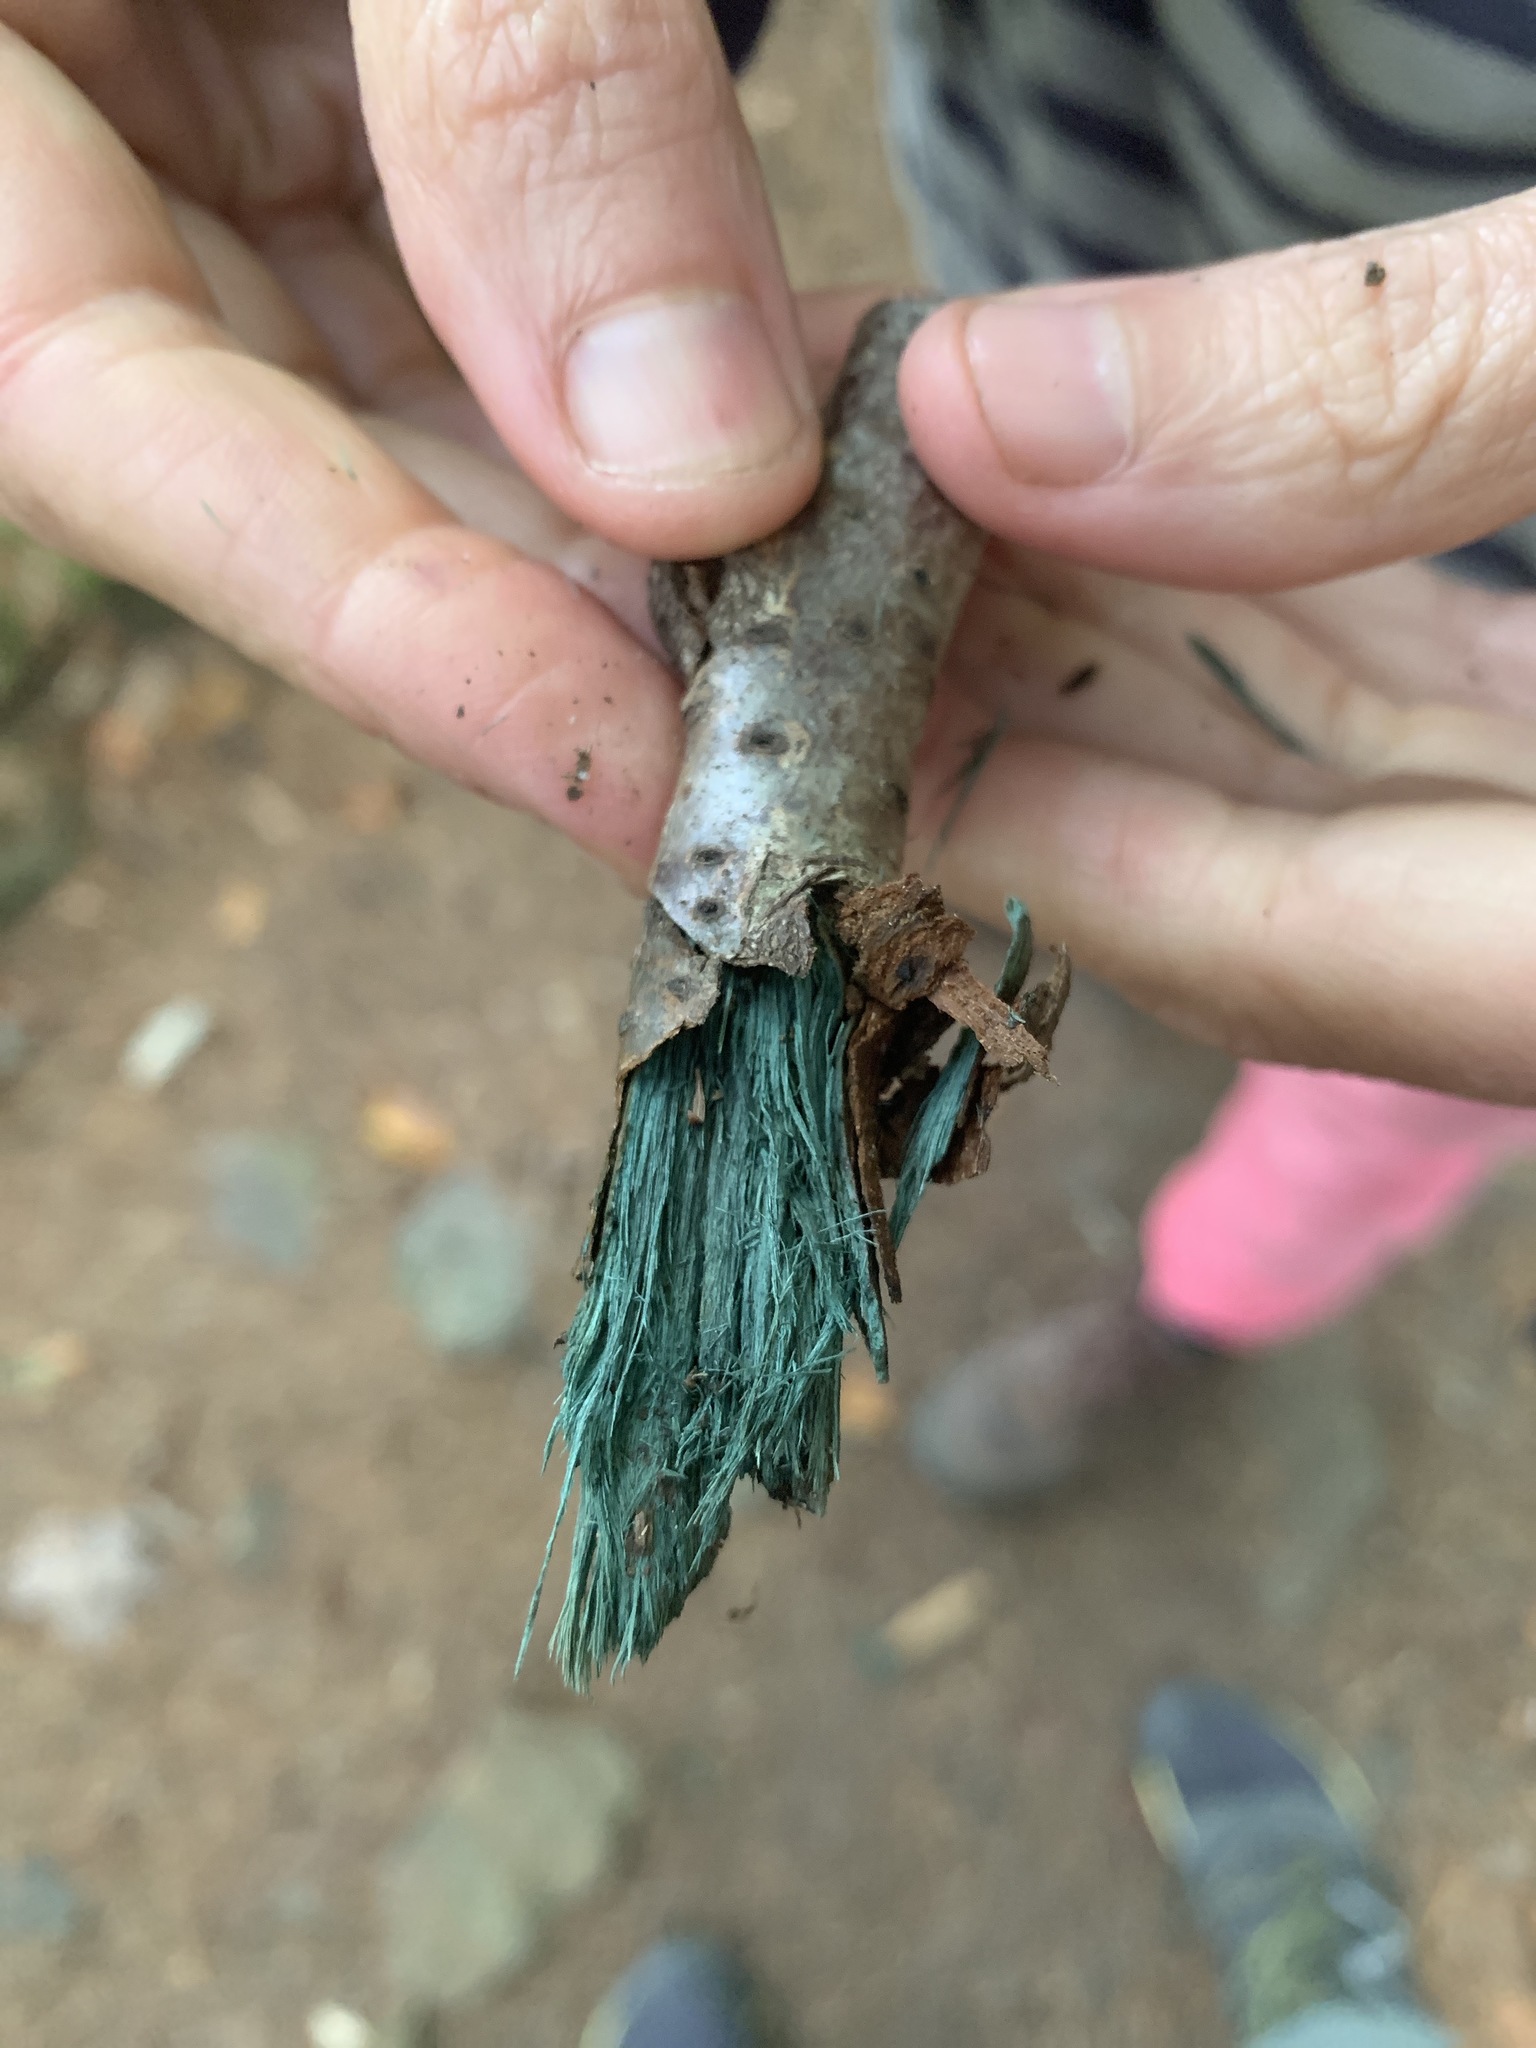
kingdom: Fungi
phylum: Ascomycota
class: Leotiomycetes
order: Helotiales
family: Chlorociboriaceae
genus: Chlorociboria
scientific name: Chlorociboria
